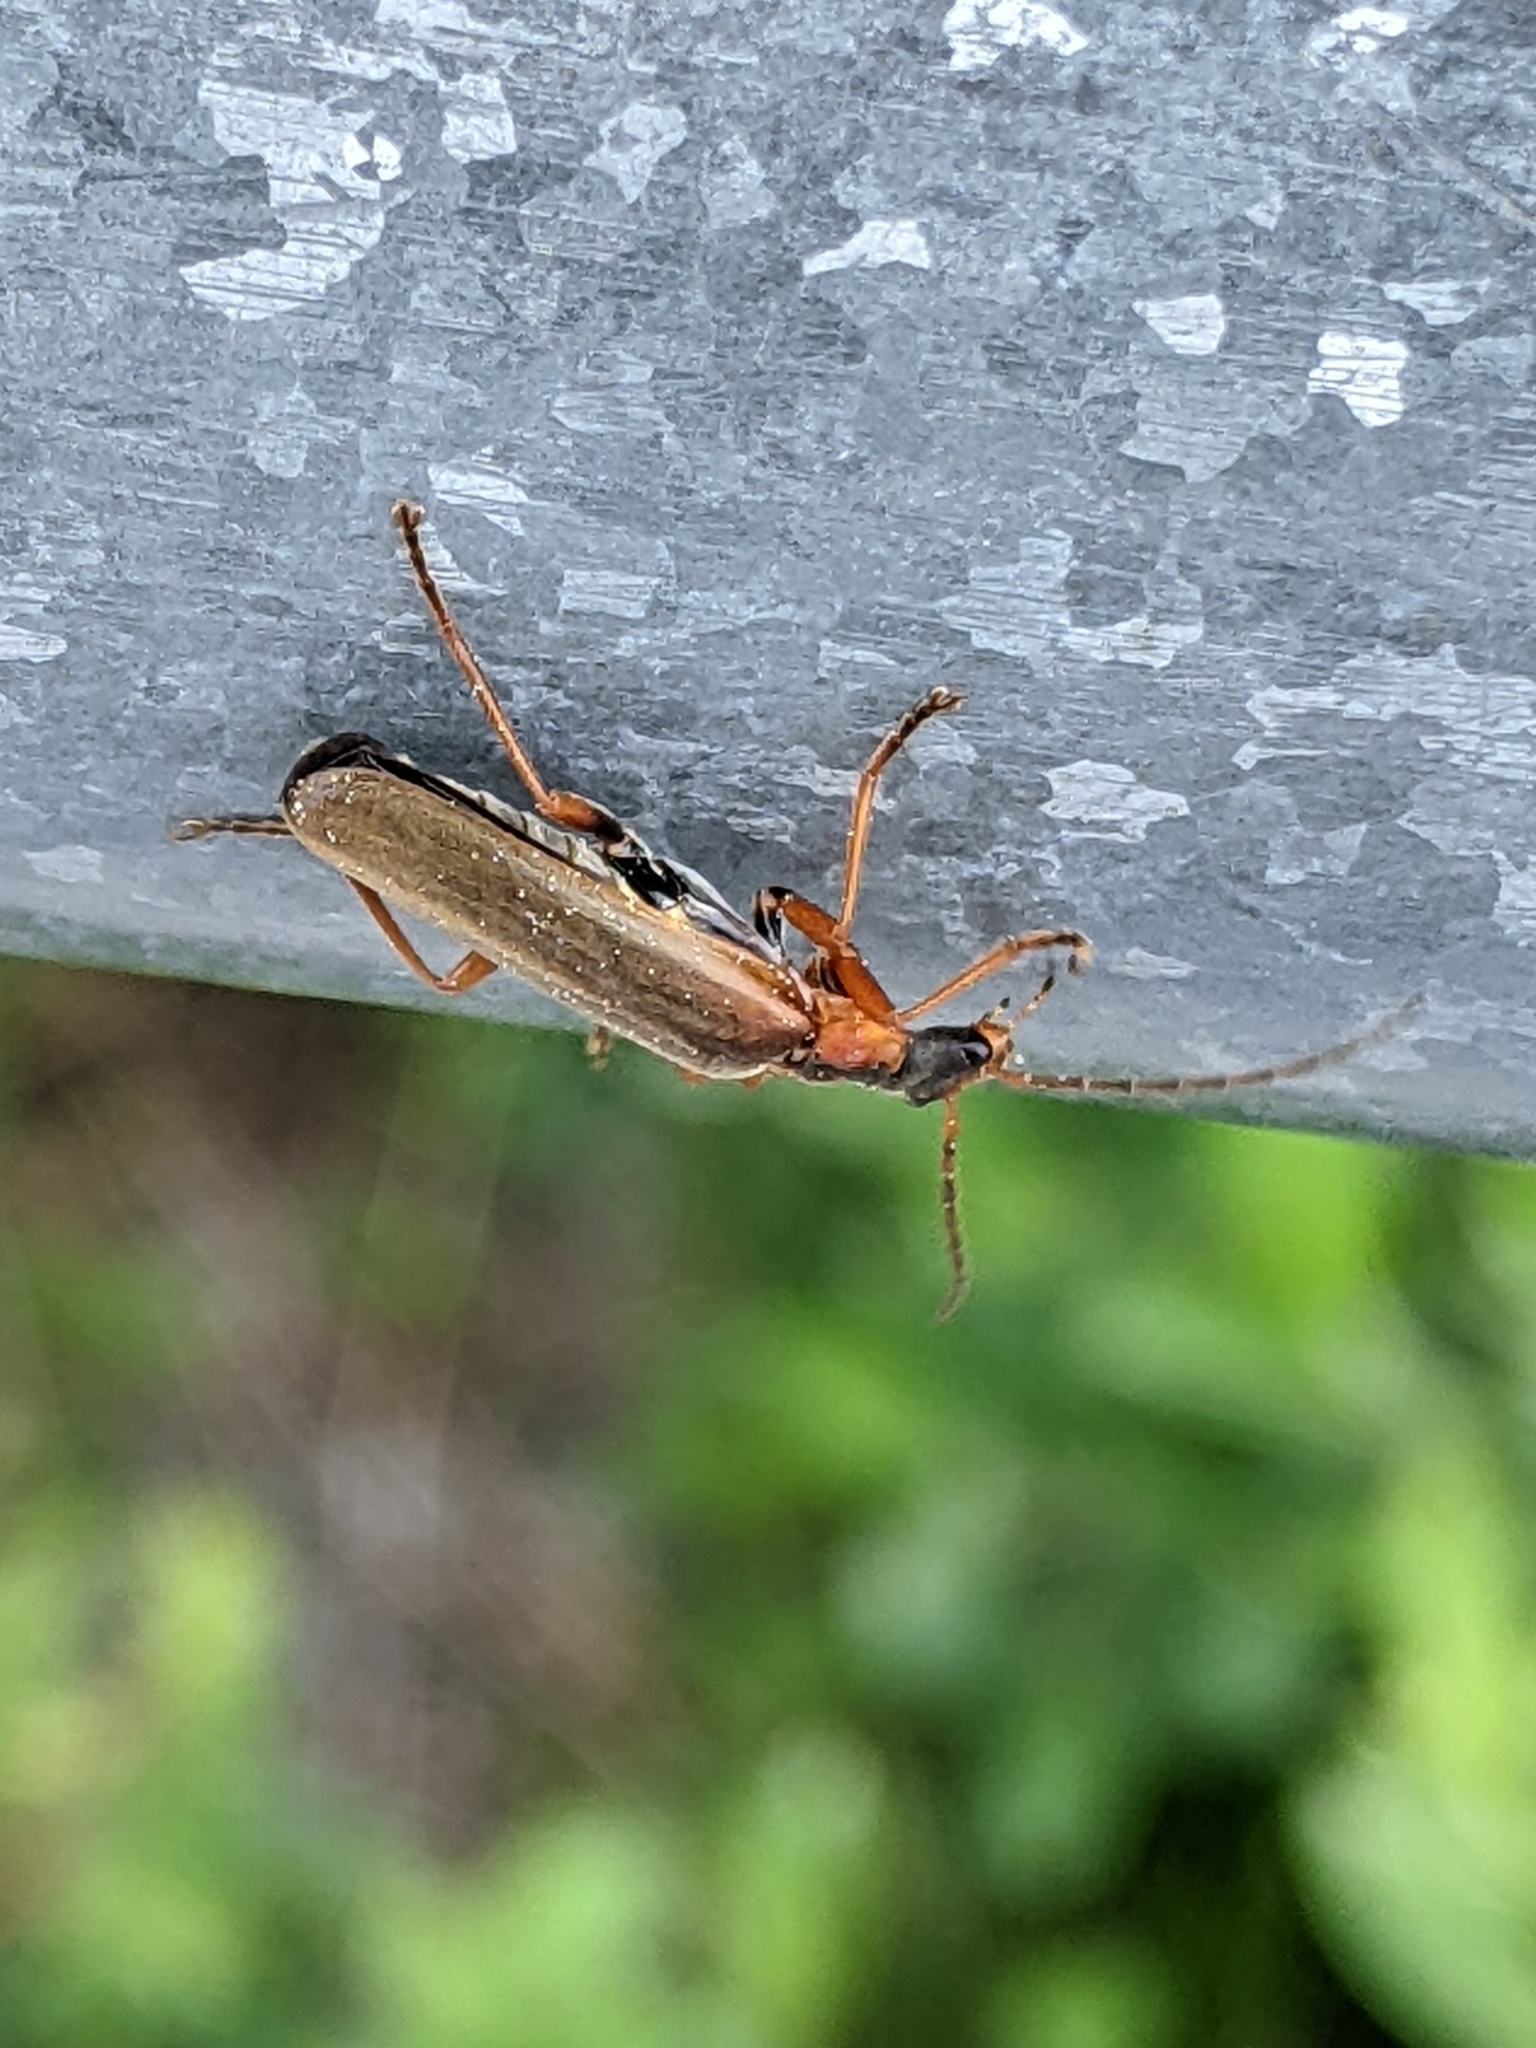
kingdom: Animalia
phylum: Arthropoda
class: Insecta
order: Coleoptera
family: Cantharidae
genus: Podabrus
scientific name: Podabrus alpinus
